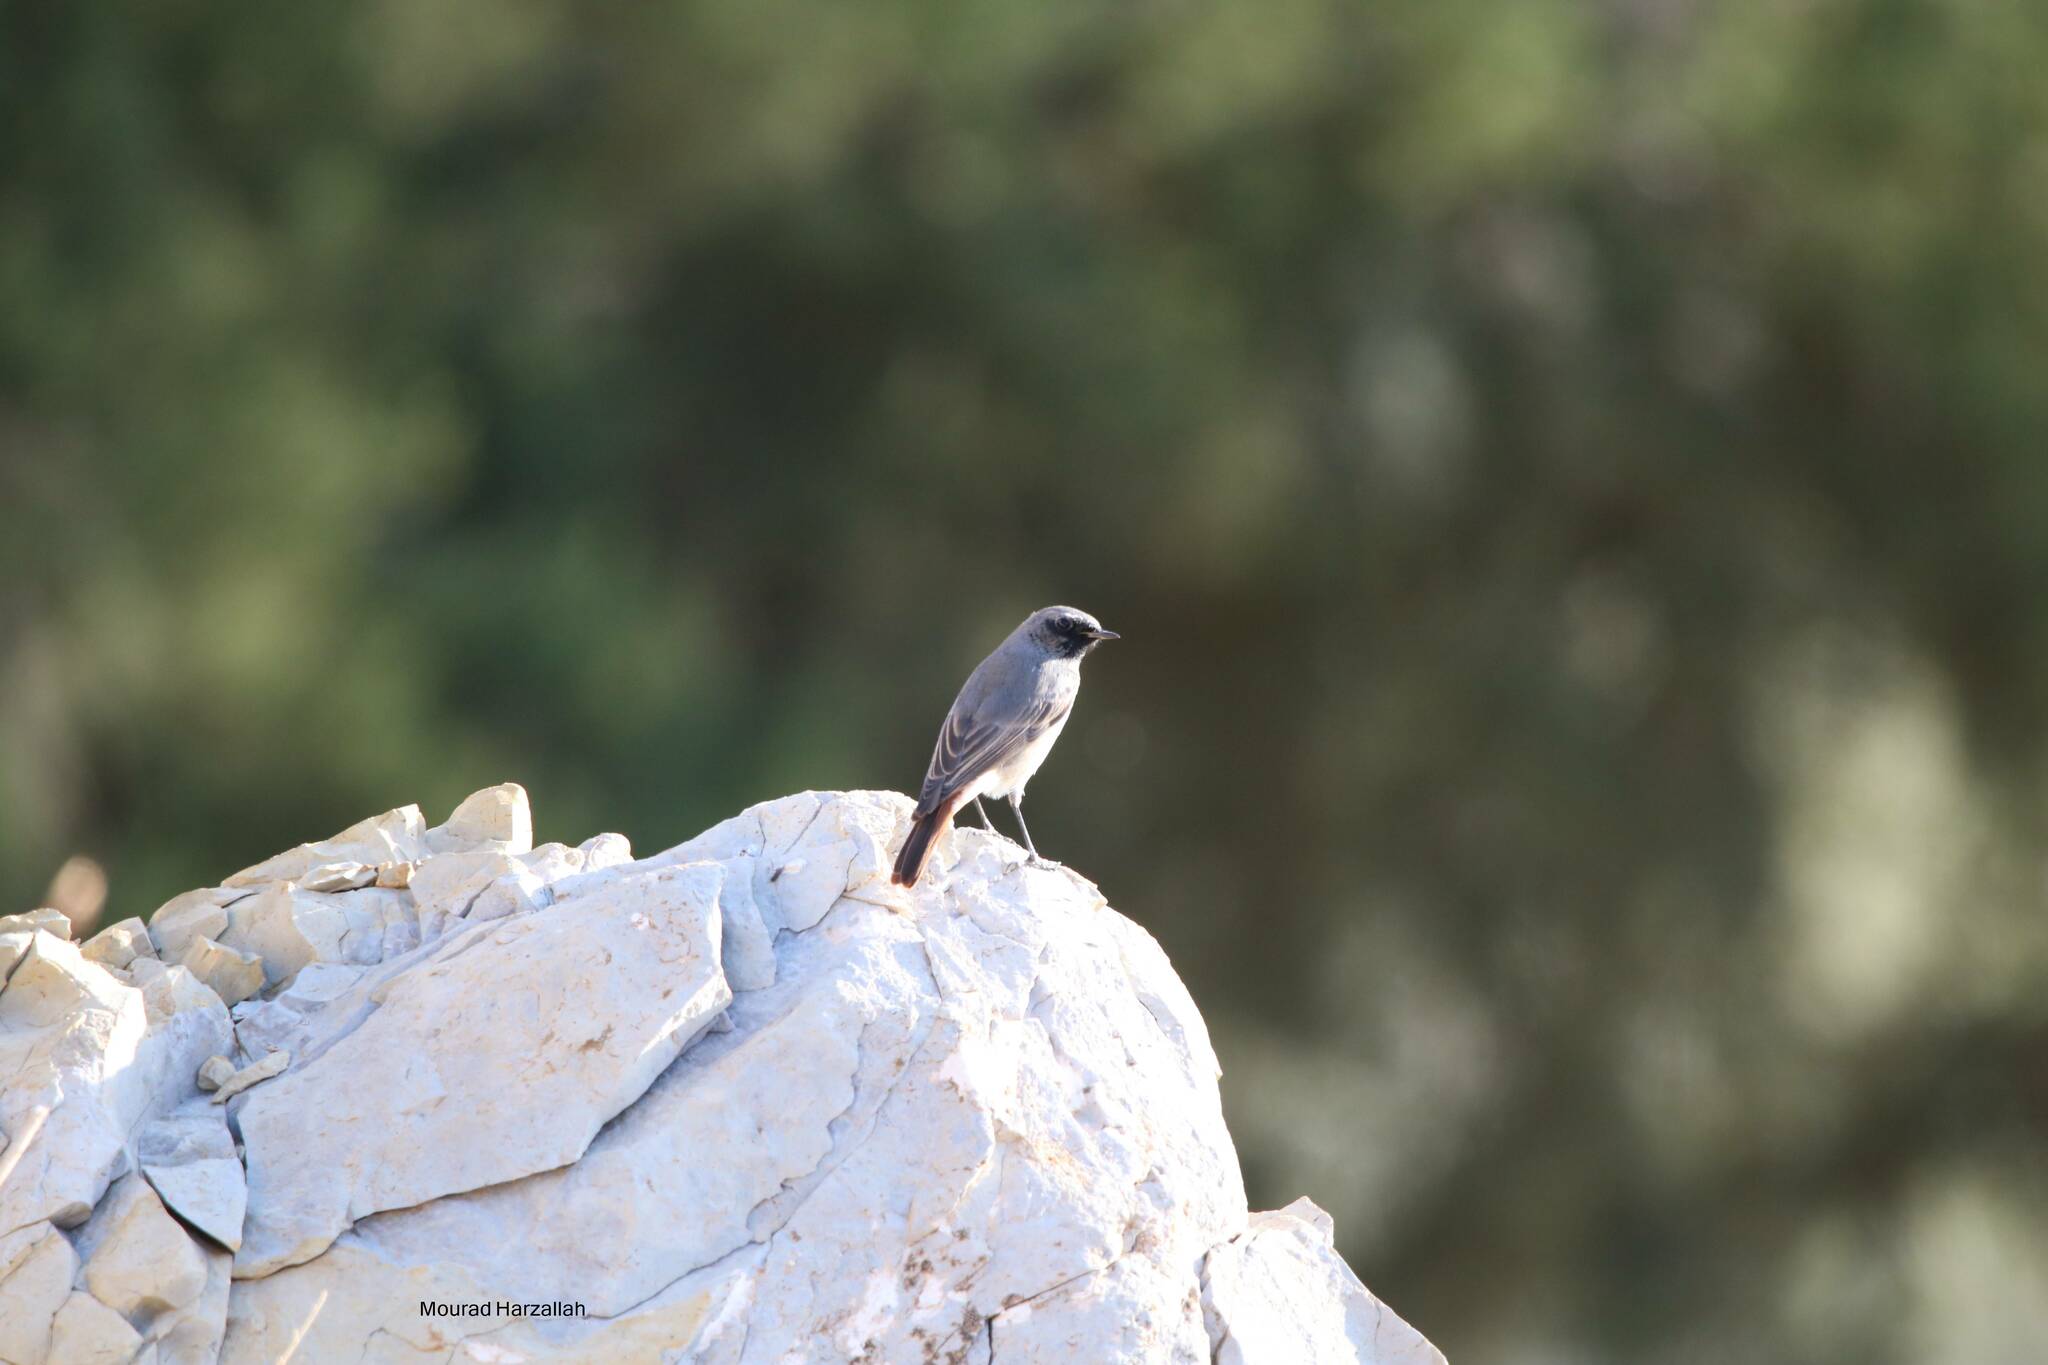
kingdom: Animalia
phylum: Chordata
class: Aves
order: Passeriformes
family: Muscicapidae
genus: Phoenicurus
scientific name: Phoenicurus ochruros
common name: Black redstart
